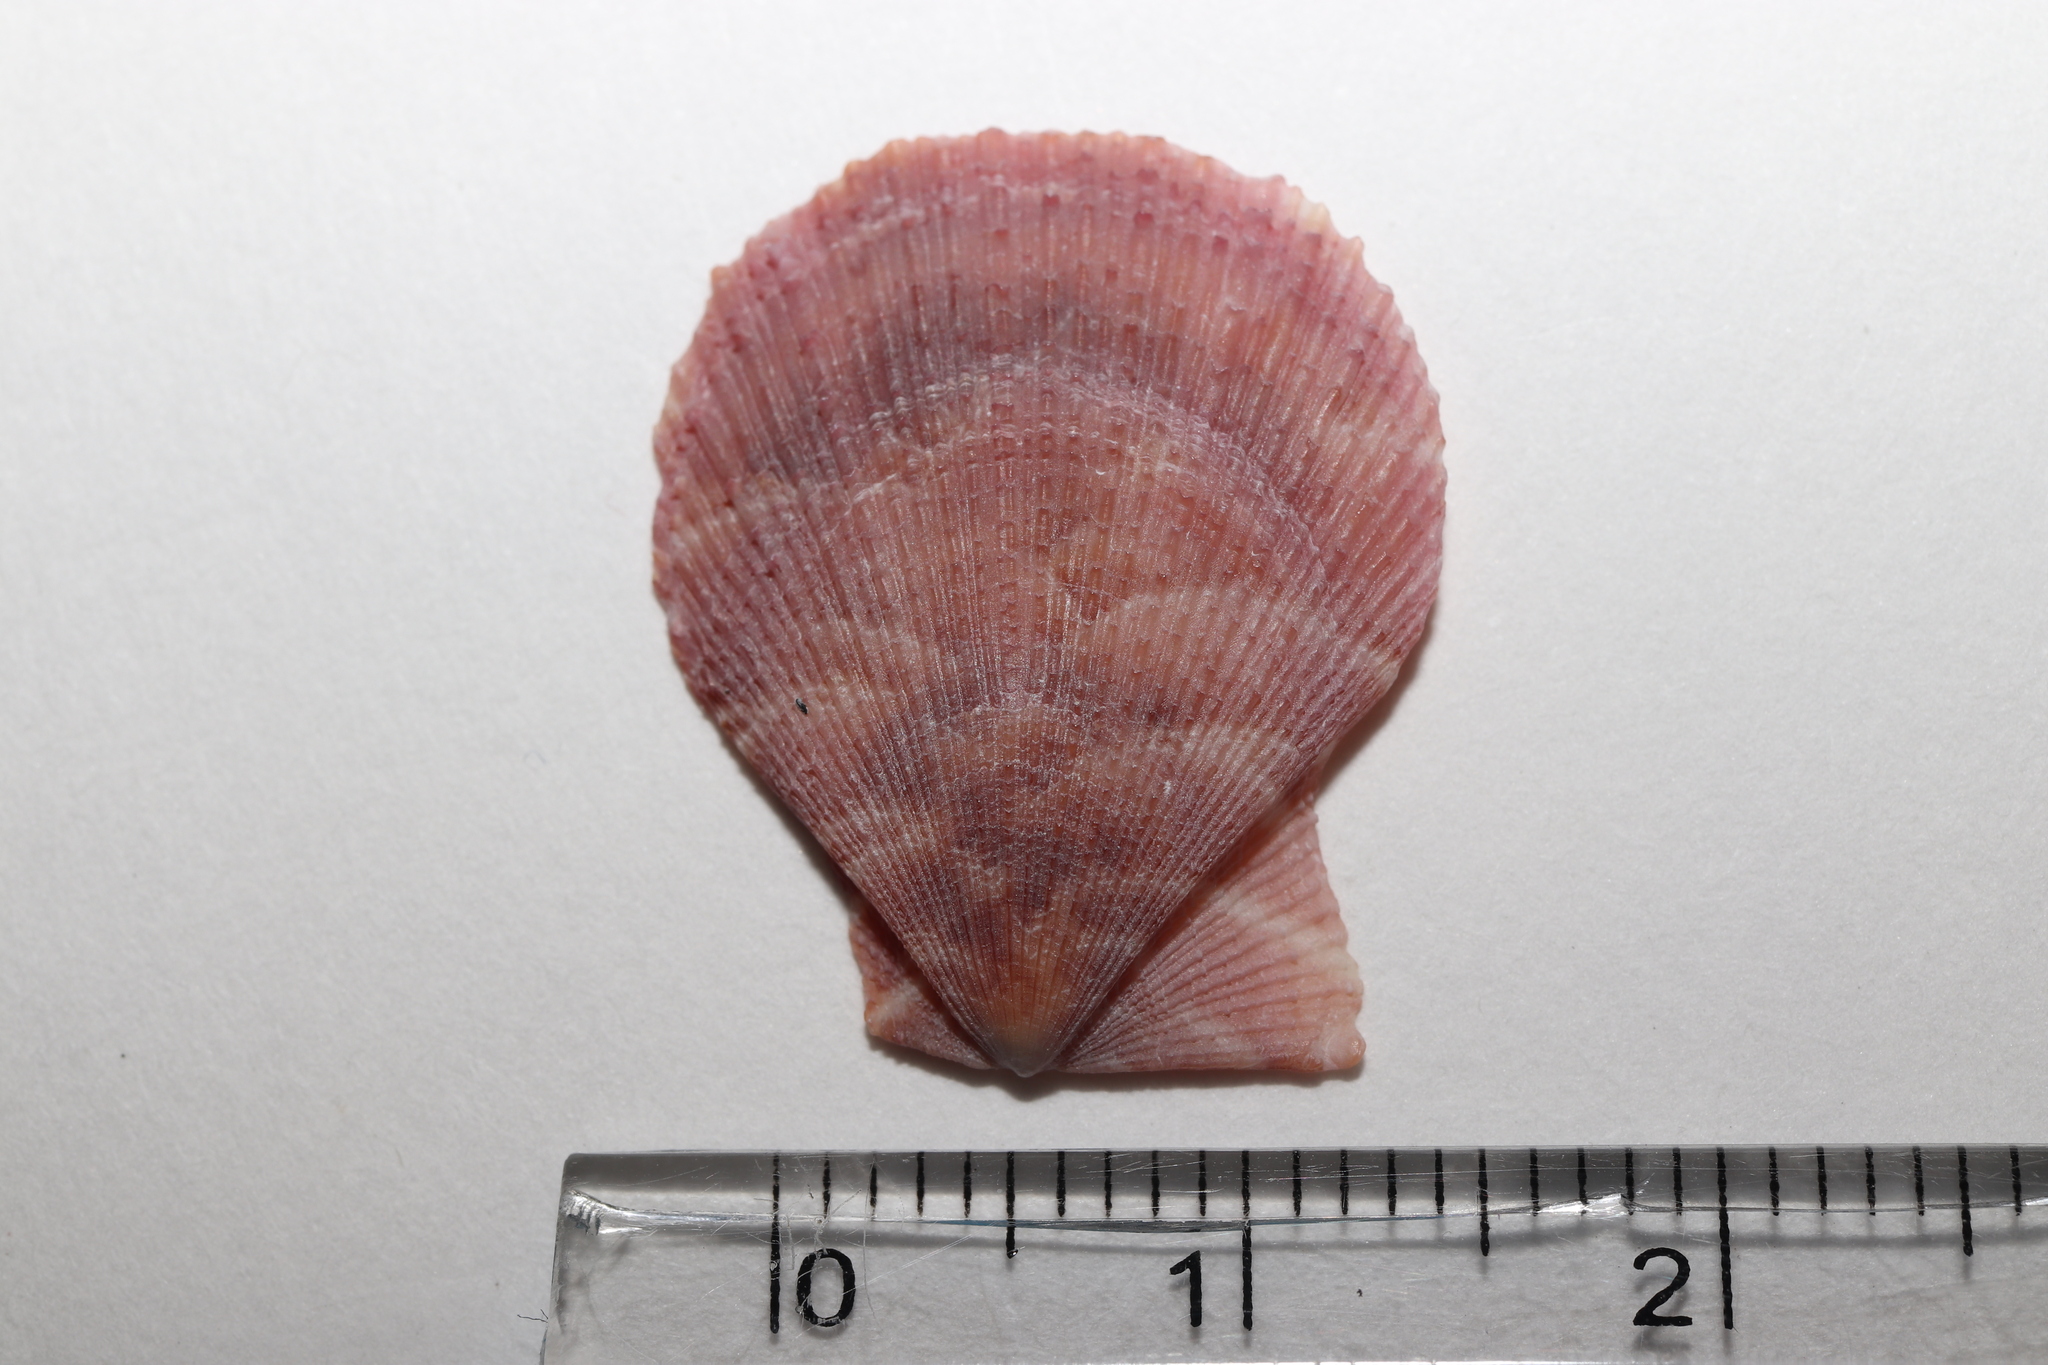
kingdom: Animalia
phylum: Mollusca
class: Bivalvia
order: Pectinida
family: Pectinidae
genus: Laevichlamys
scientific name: Laevichlamys cuneata
